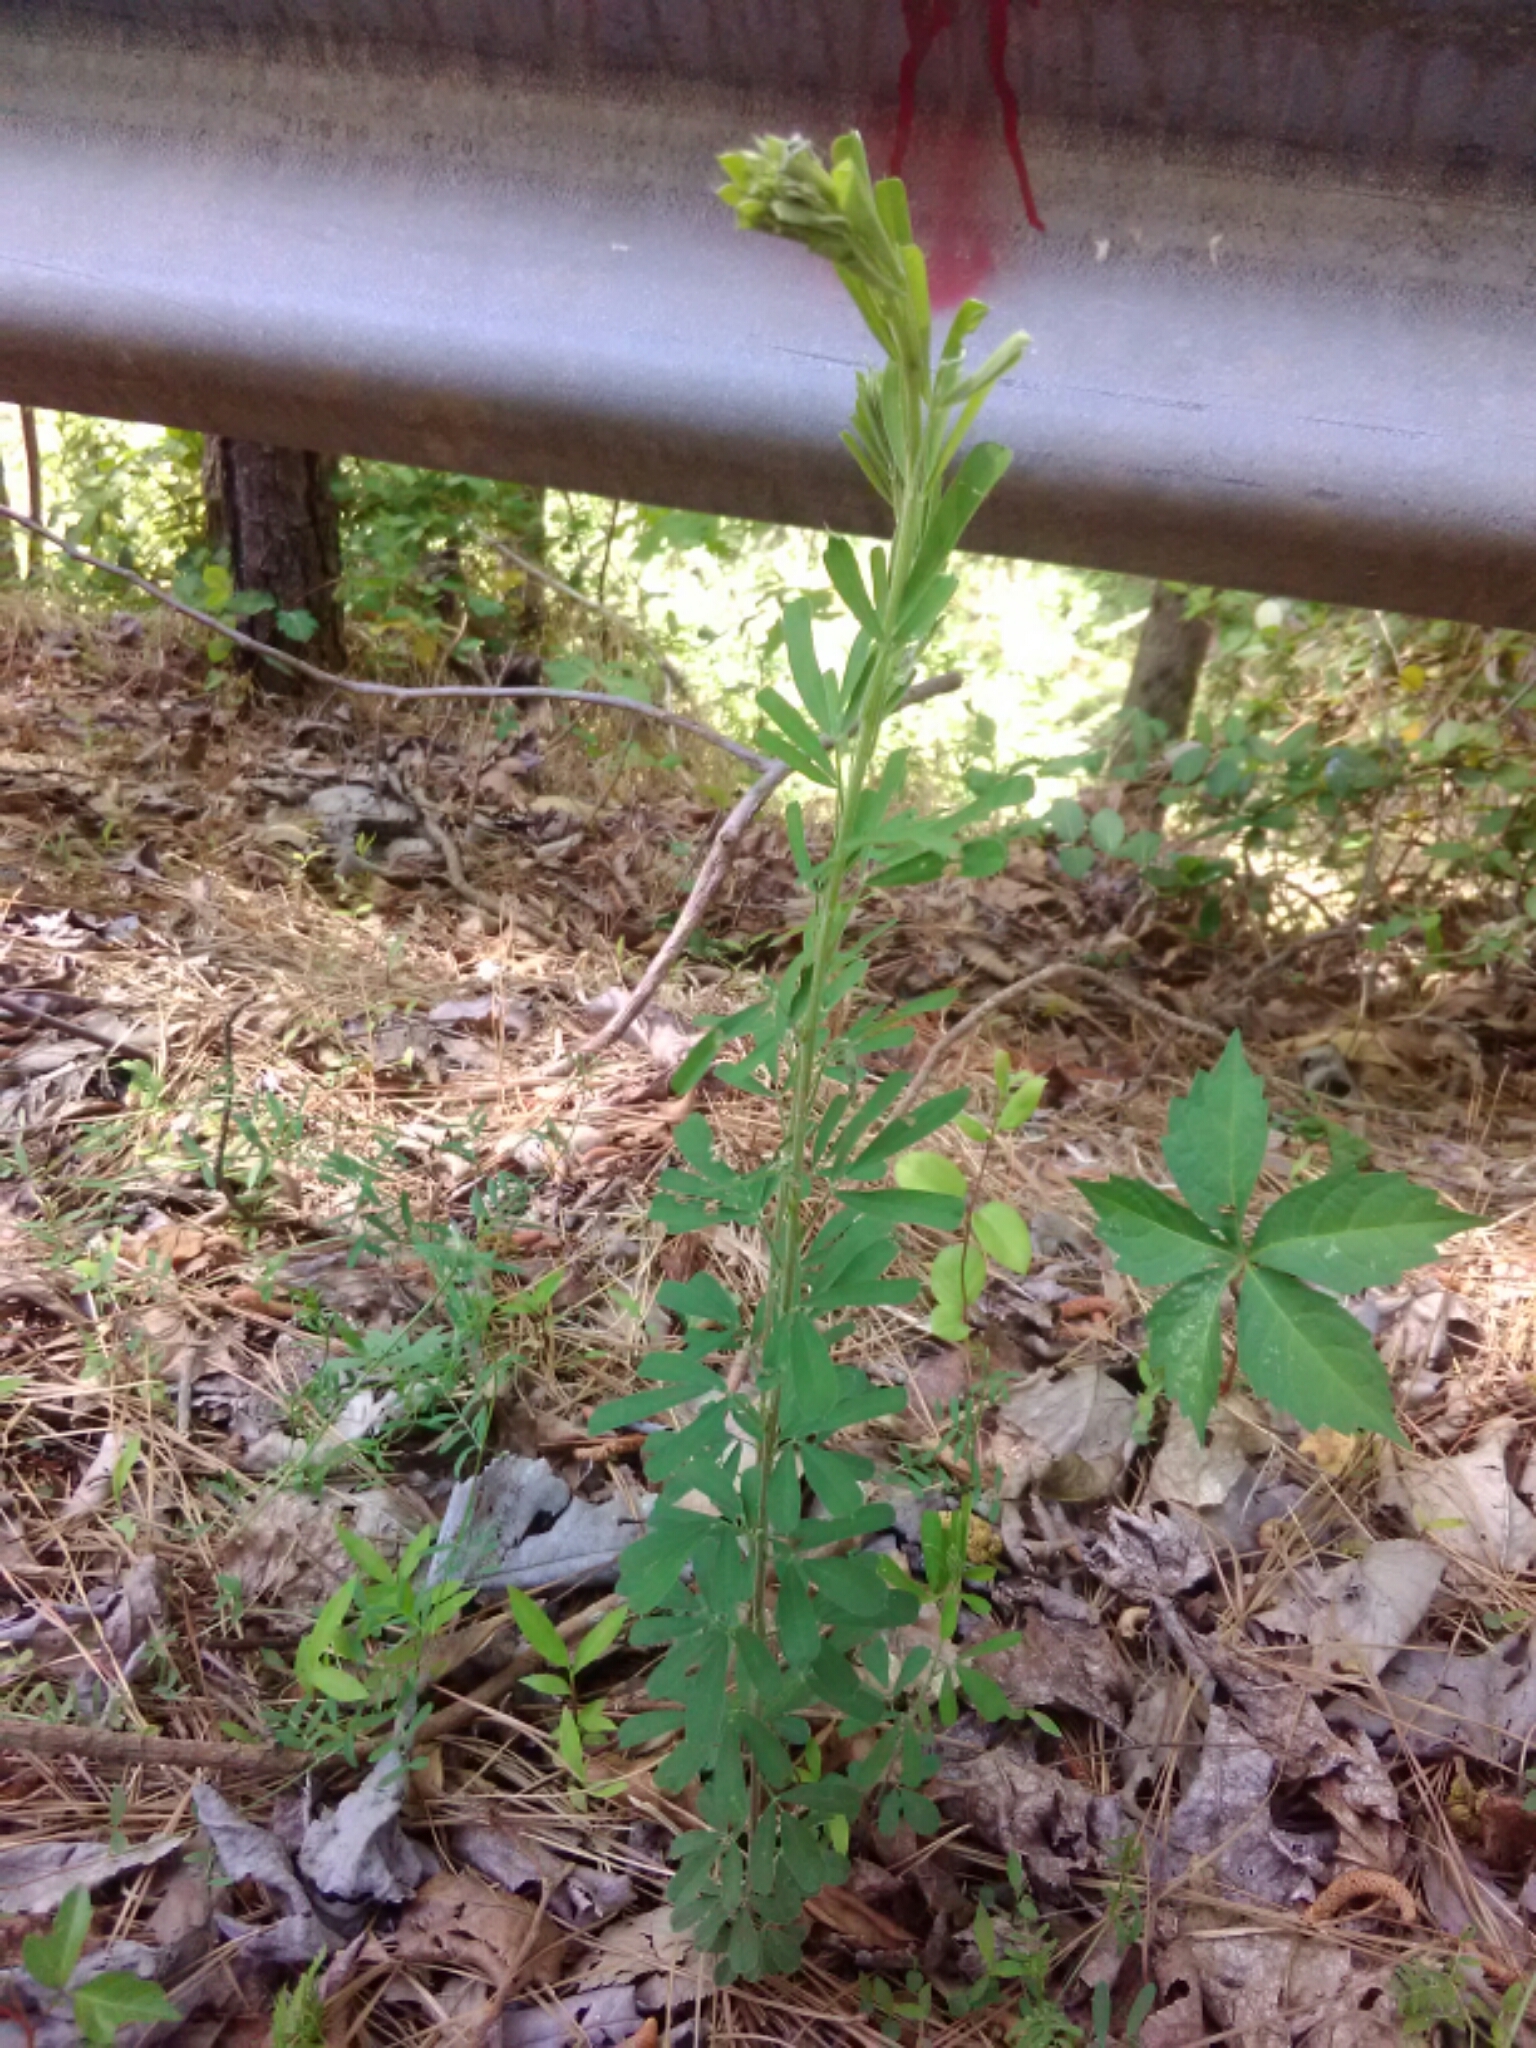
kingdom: Plantae
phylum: Tracheophyta
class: Magnoliopsida
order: Fabales
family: Fabaceae
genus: Lespedeza
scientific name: Lespedeza cuneata
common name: Chinese bush-clover
